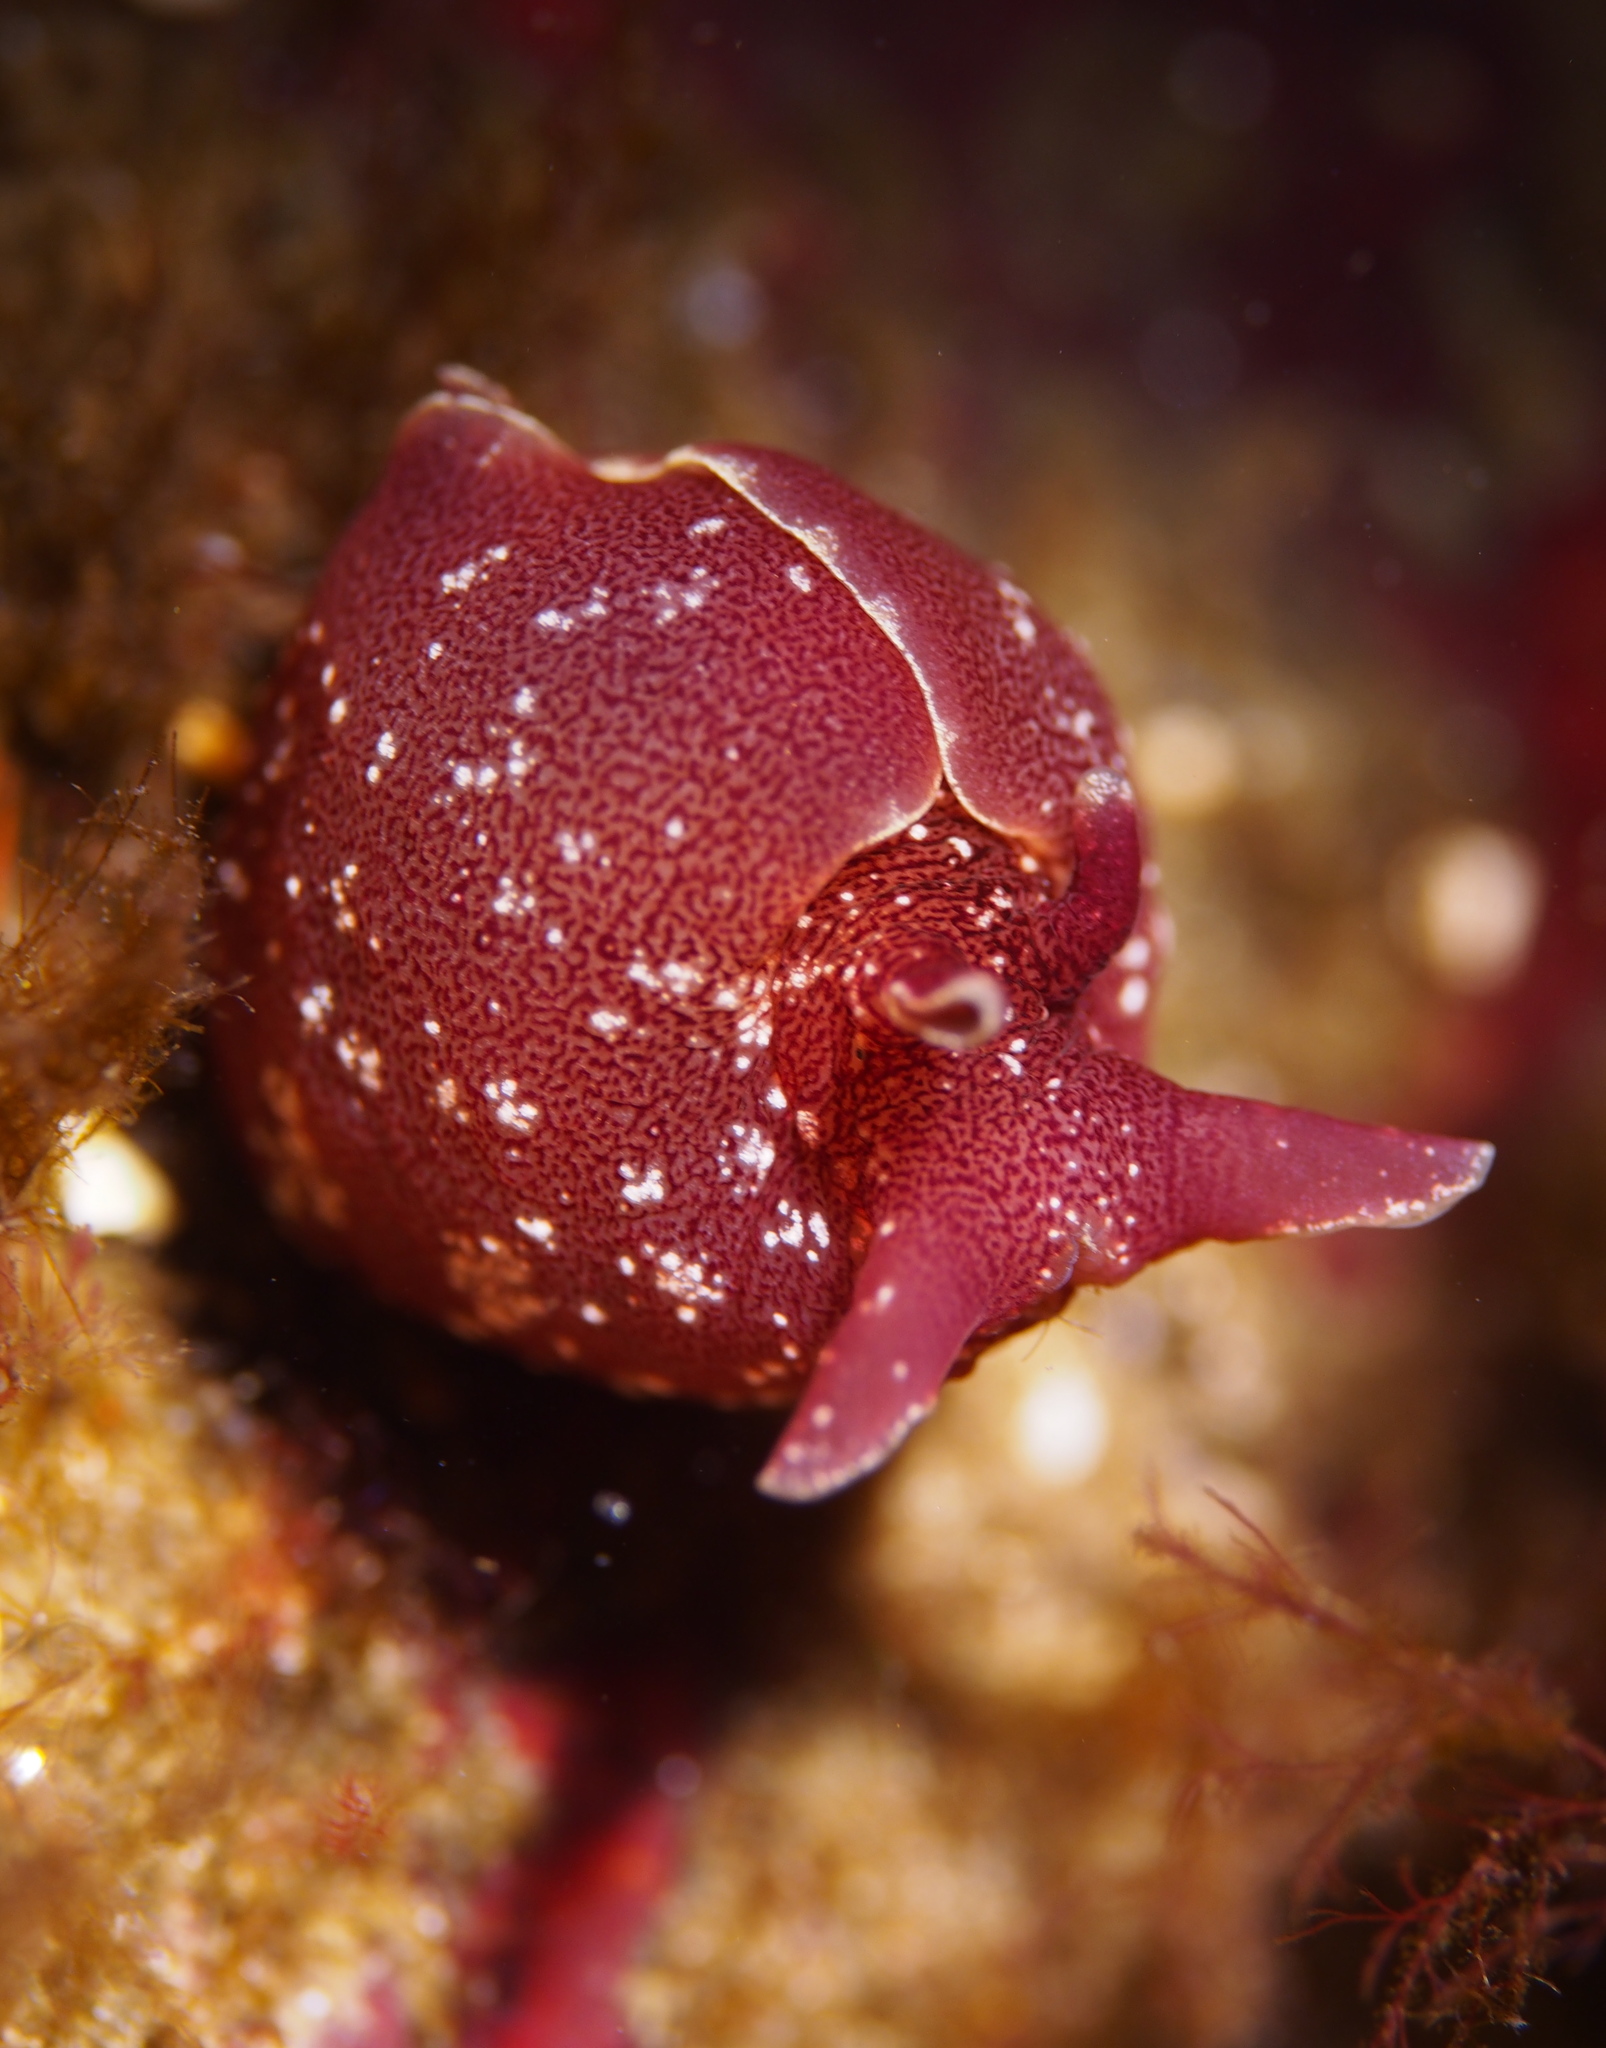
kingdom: Animalia
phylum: Mollusca
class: Gastropoda
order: Aplysiida
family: Aplysiidae
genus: Aplysia
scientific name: Aplysia punctata
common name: Common sea hare
